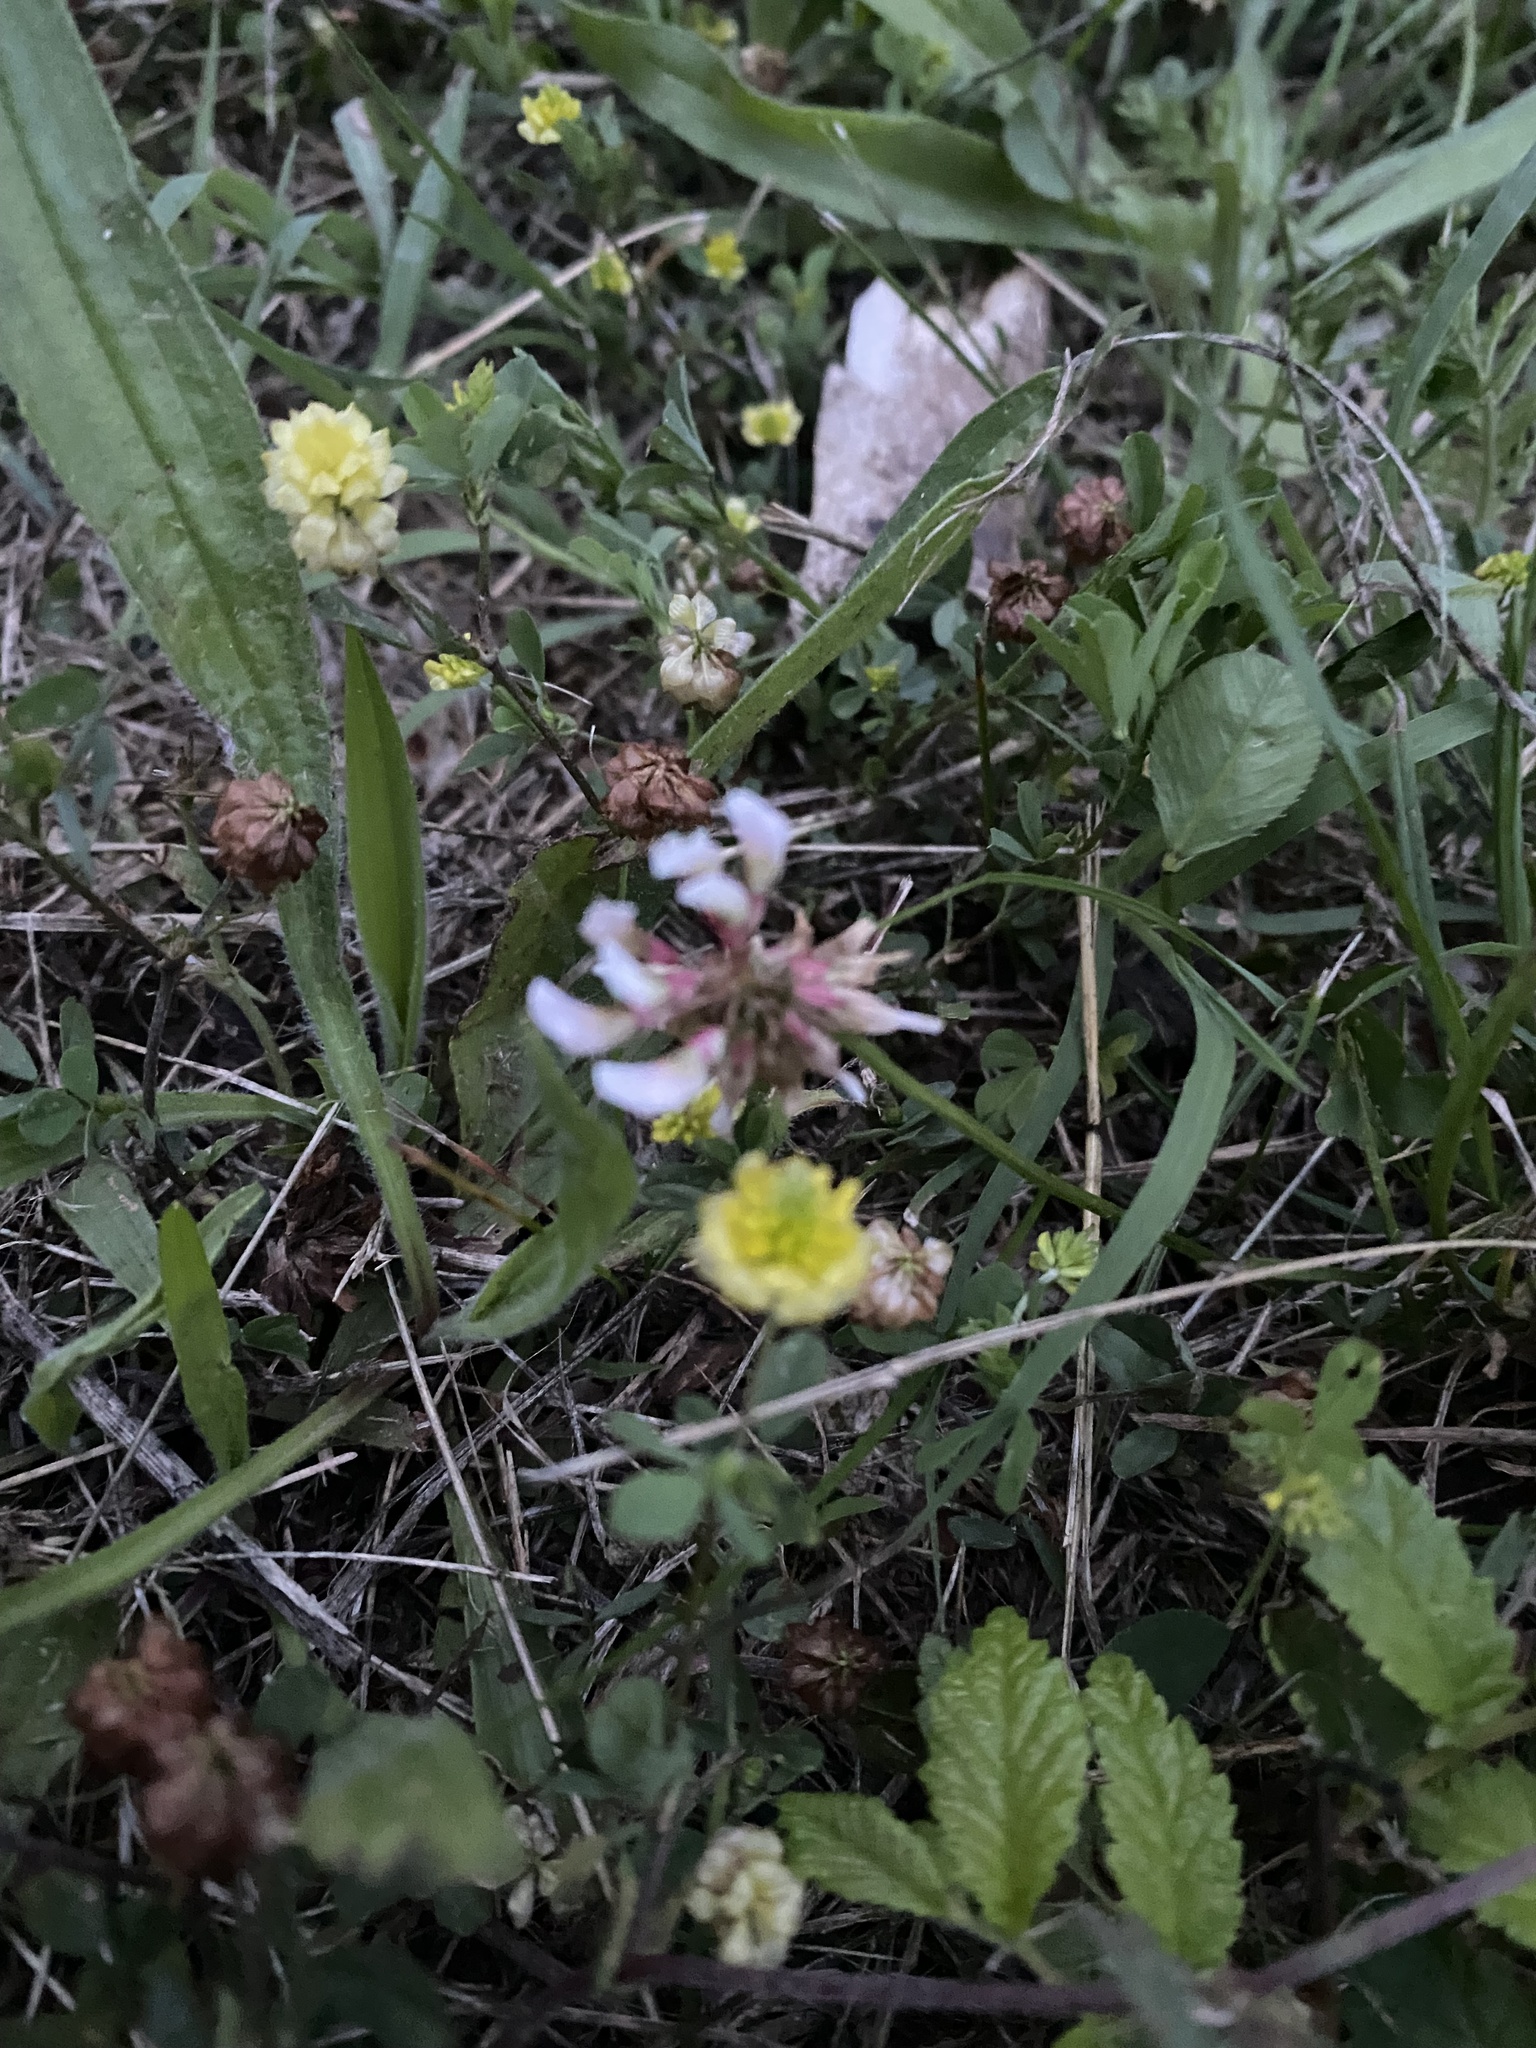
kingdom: Plantae
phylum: Tracheophyta
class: Magnoliopsida
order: Fabales
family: Fabaceae
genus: Trifolium
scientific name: Trifolium repens
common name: White clover
